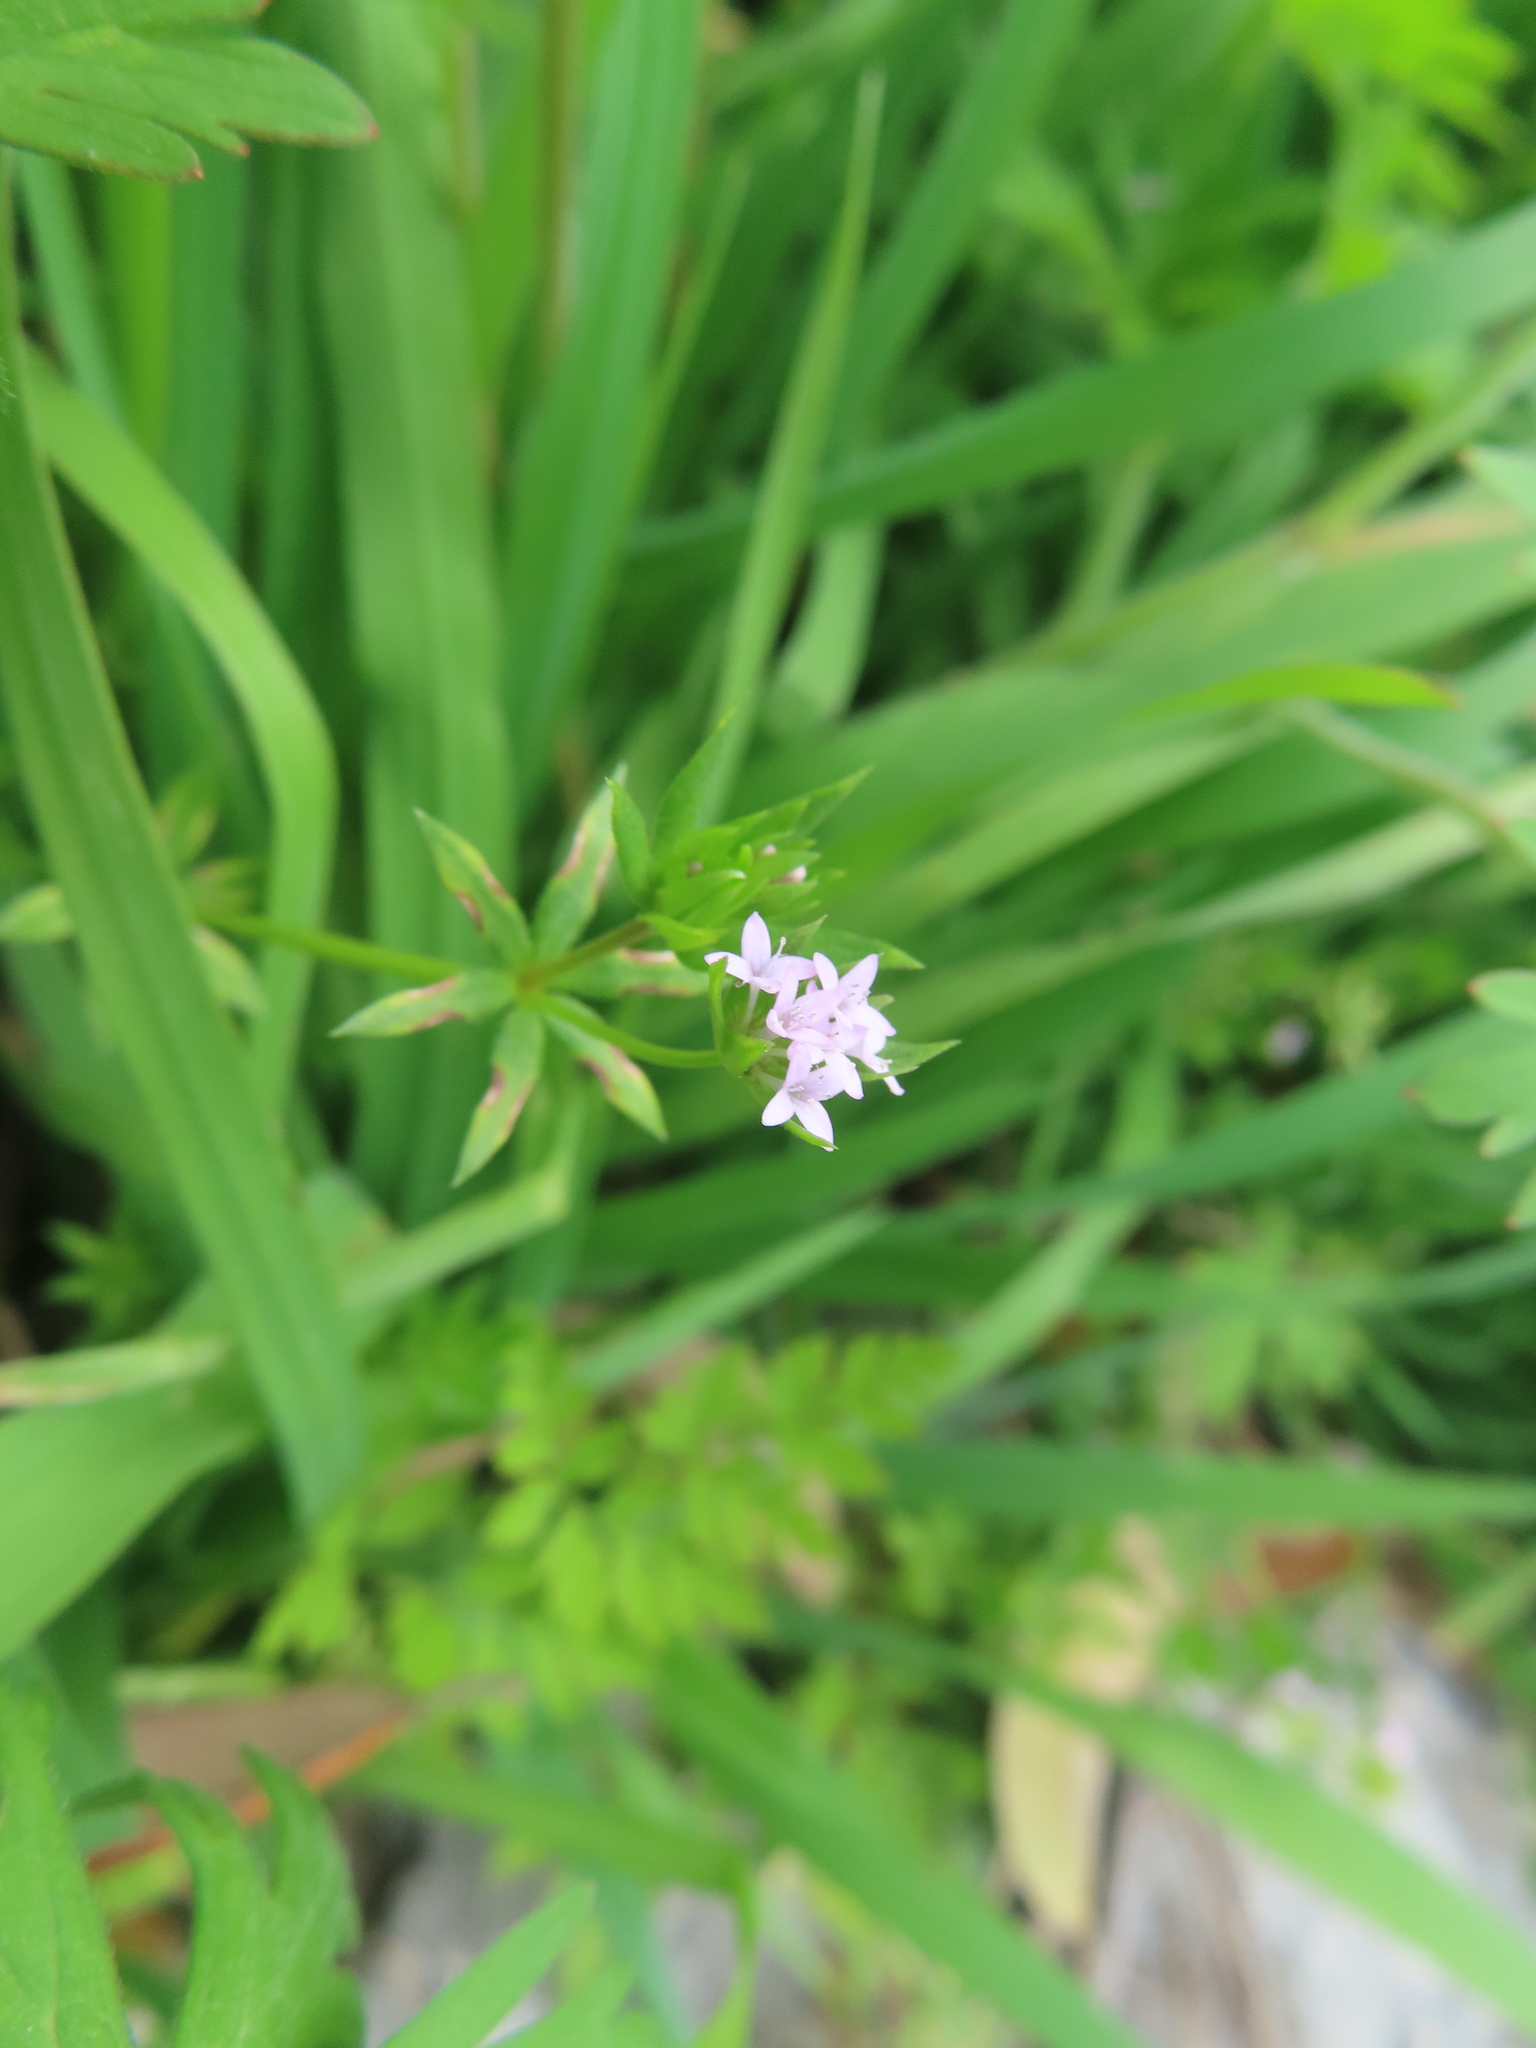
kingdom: Plantae
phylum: Tracheophyta
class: Magnoliopsida
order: Gentianales
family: Rubiaceae
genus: Sherardia
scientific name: Sherardia arvensis
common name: Field madder
